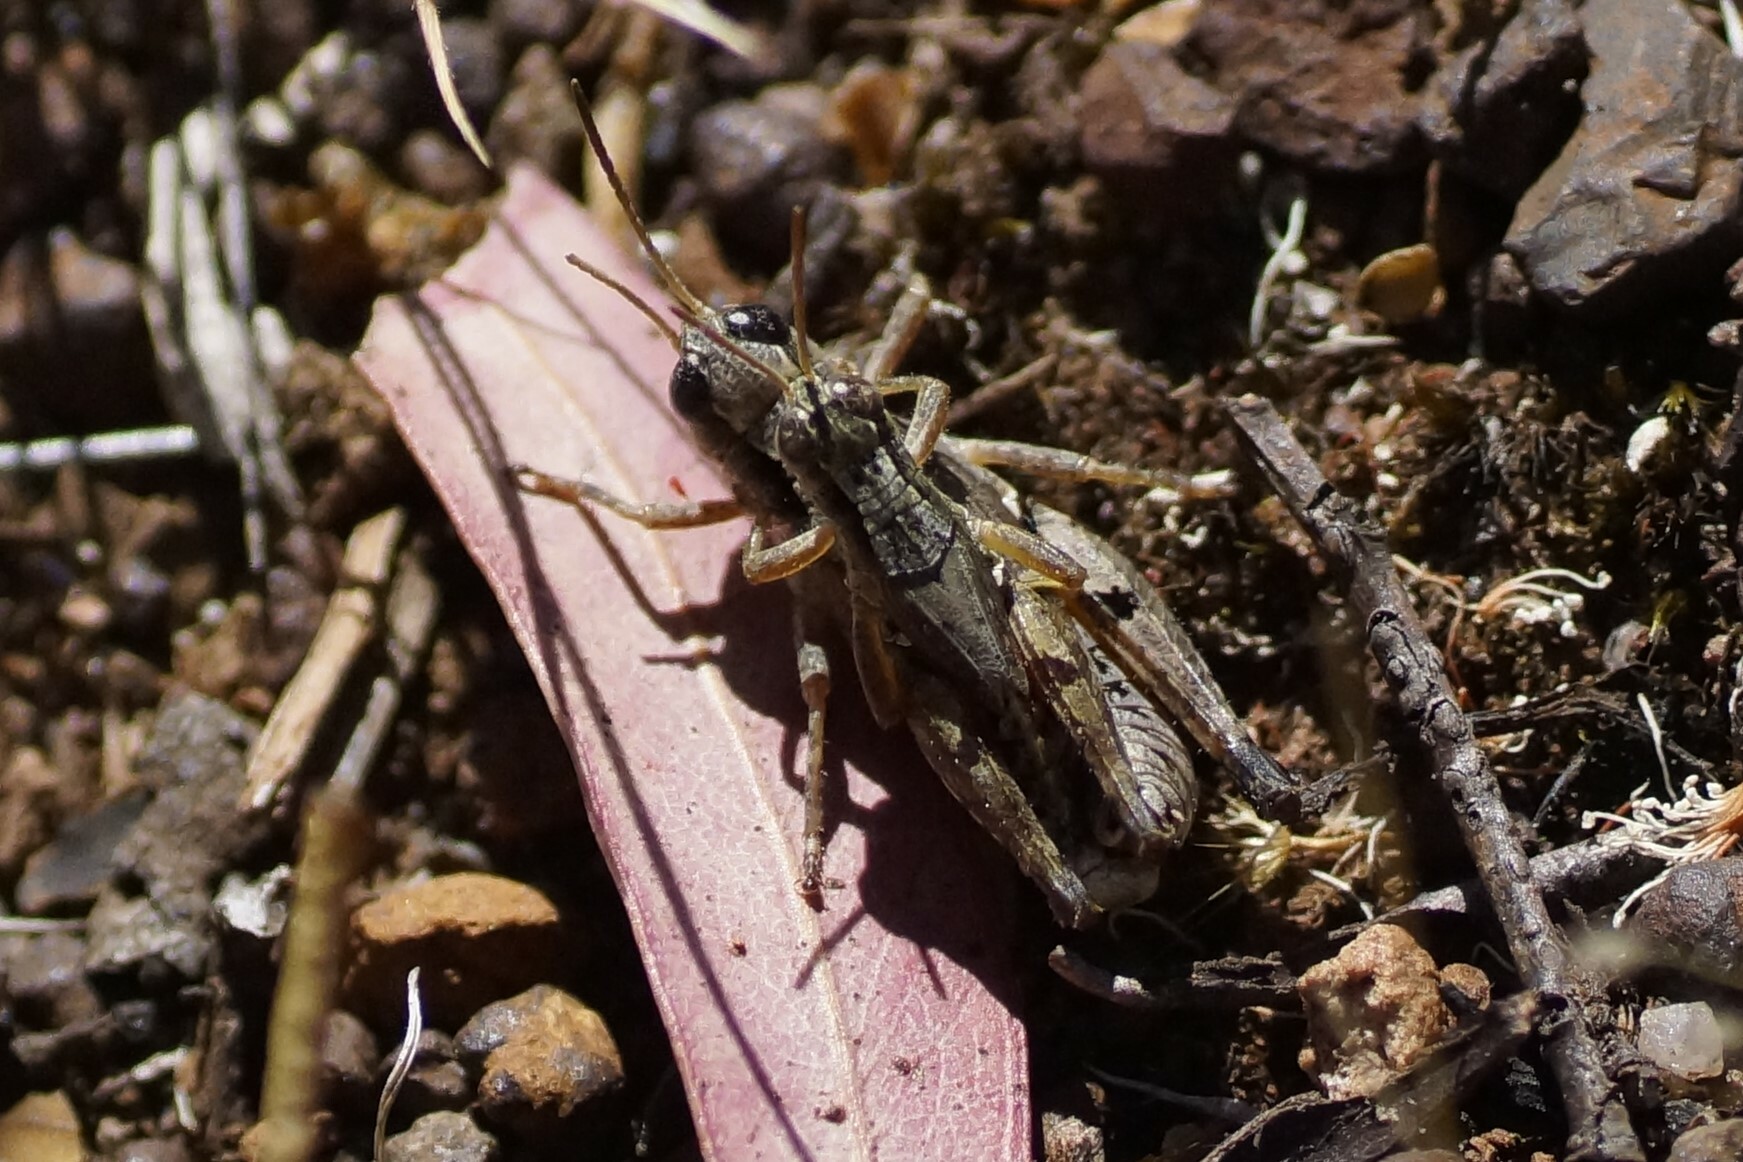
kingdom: Animalia
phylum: Arthropoda
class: Insecta
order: Orthoptera
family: Acrididae
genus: Phaulacridium
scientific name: Phaulacridium vittatum
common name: Wingless grasshopper
